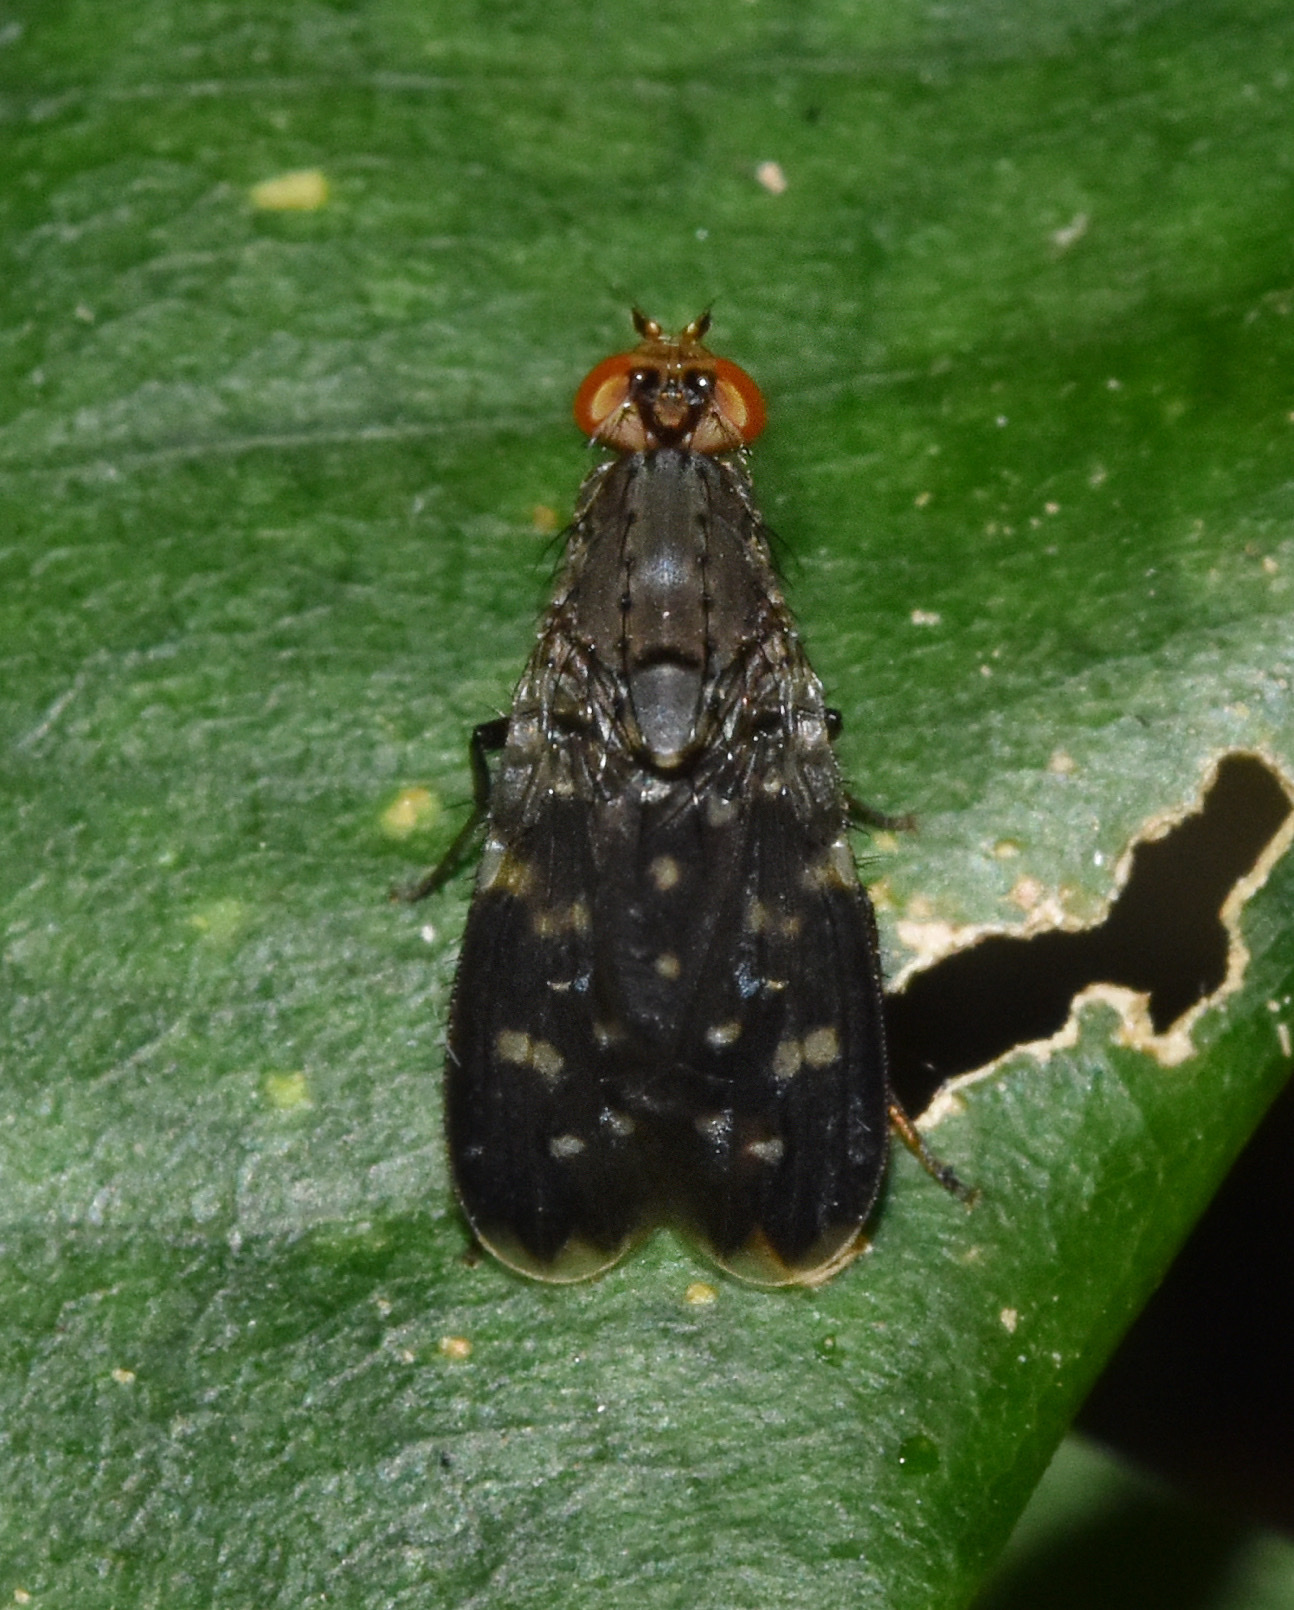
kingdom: Animalia
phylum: Arthropoda
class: Insecta
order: Diptera
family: Heleomyzidae
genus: Suillia
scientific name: Suillia picta
